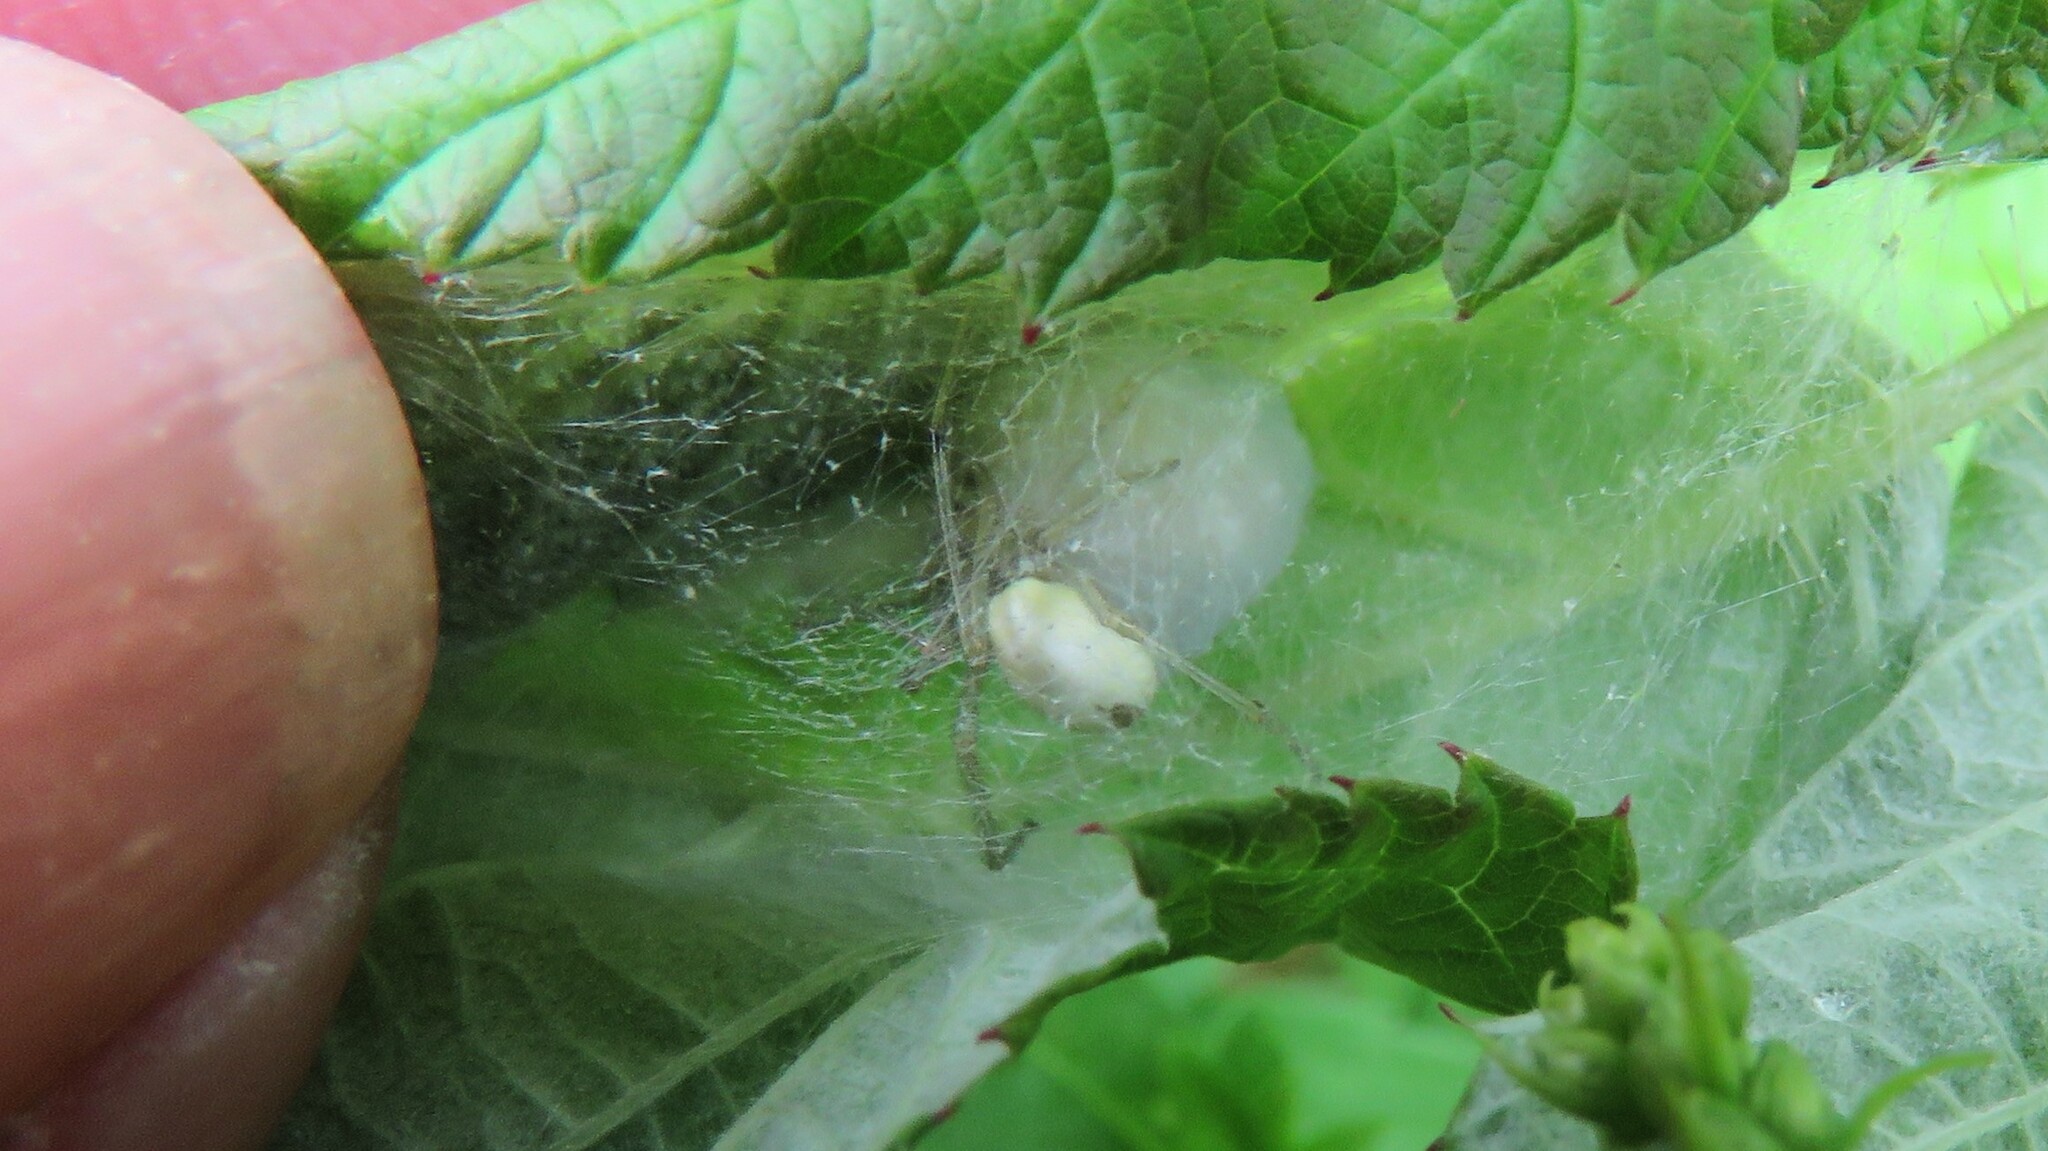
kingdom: Animalia
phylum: Arthropoda
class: Arachnida
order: Araneae
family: Theridiidae
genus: Enoplognatha
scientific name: Enoplognatha ovata
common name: Common candy-striped spider
